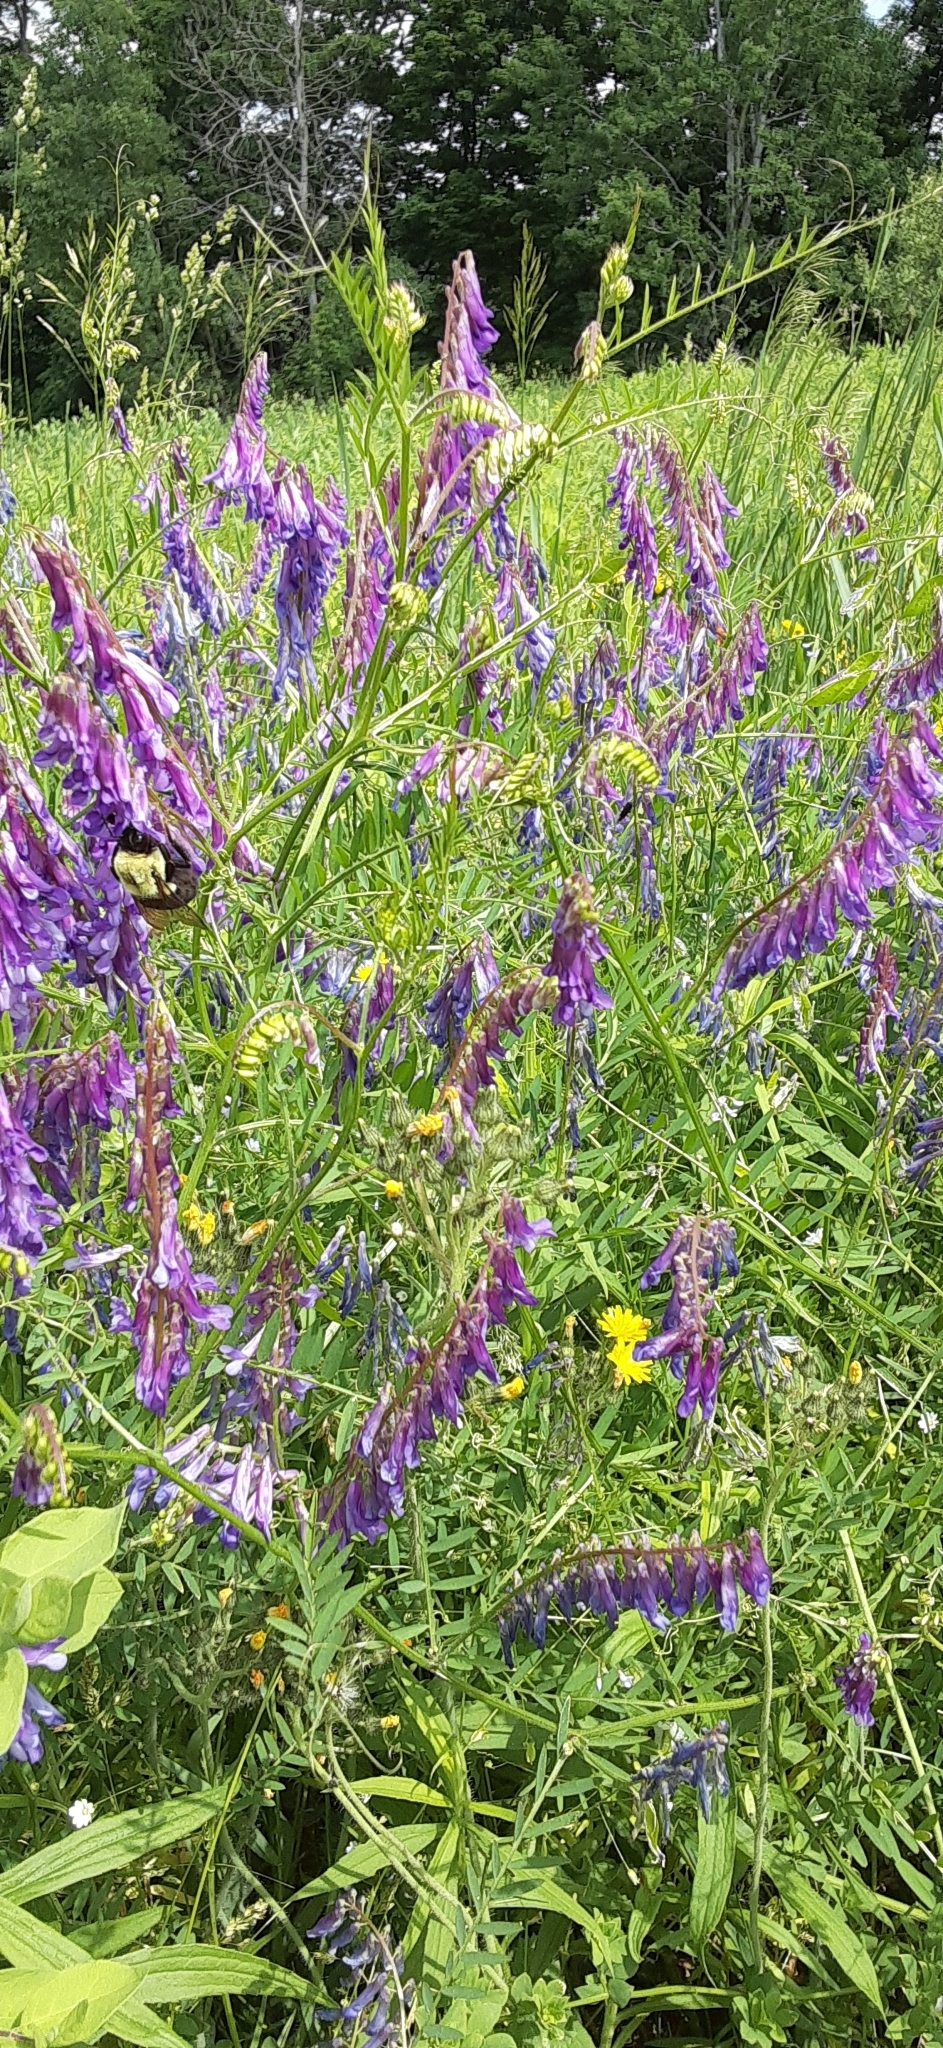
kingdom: Plantae
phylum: Tracheophyta
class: Magnoliopsida
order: Fabales
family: Fabaceae
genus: Vicia
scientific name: Vicia villosa
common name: Fodder vetch
